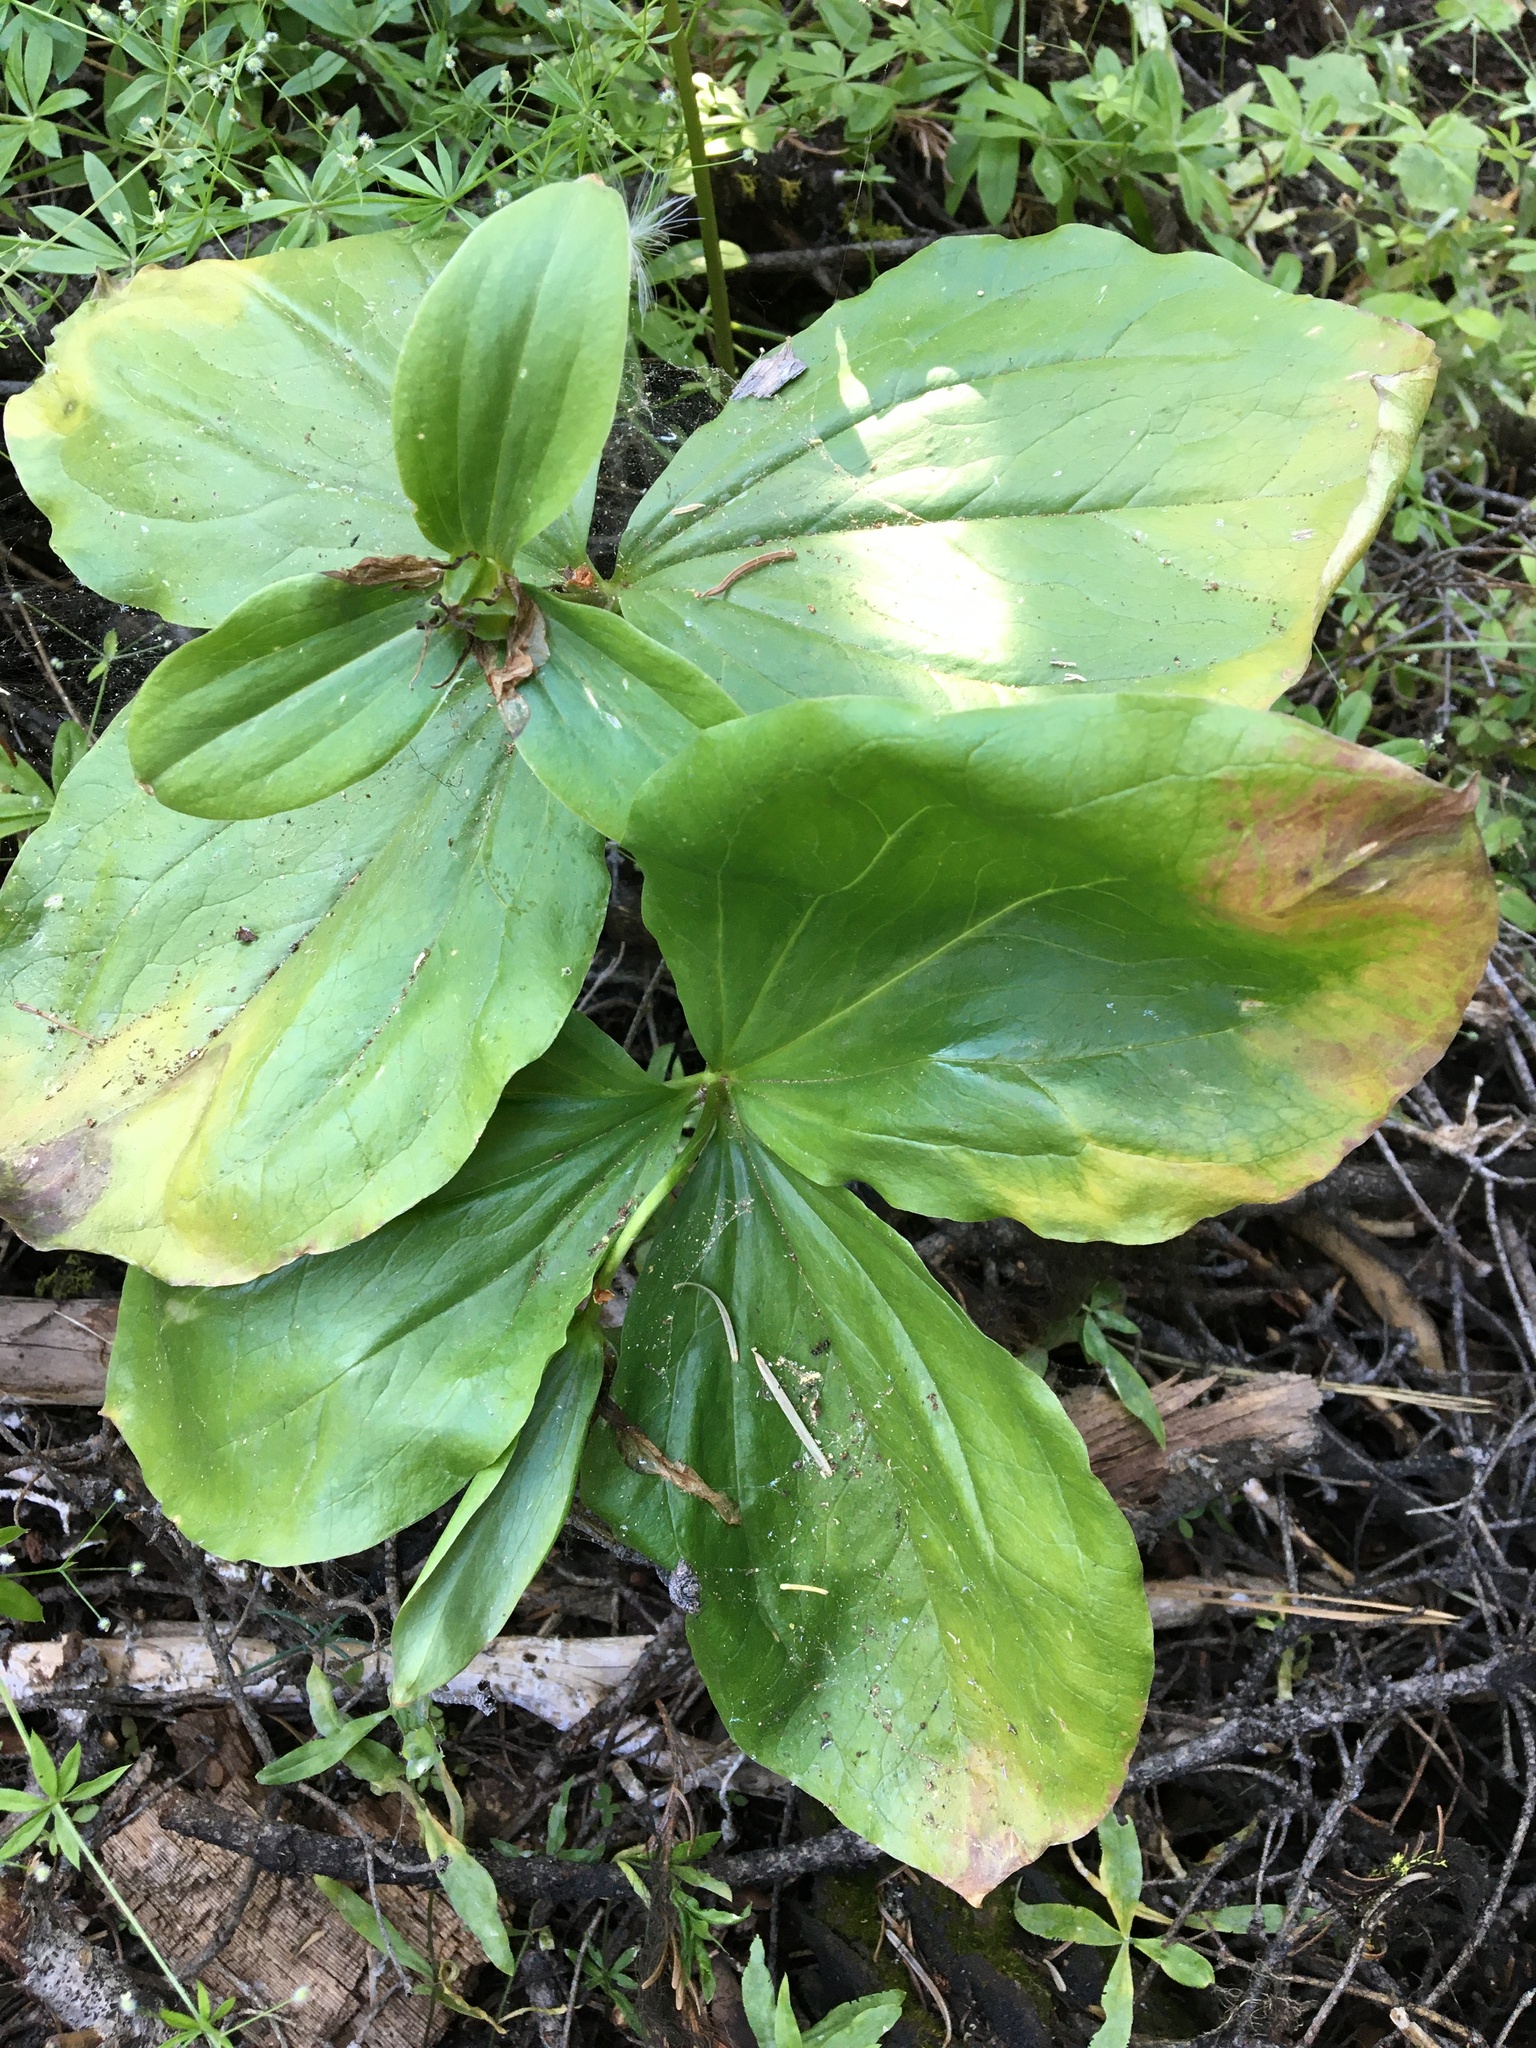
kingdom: Plantae
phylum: Tracheophyta
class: Liliopsida
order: Liliales
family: Melanthiaceae
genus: Trillium
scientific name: Trillium crassifolium
